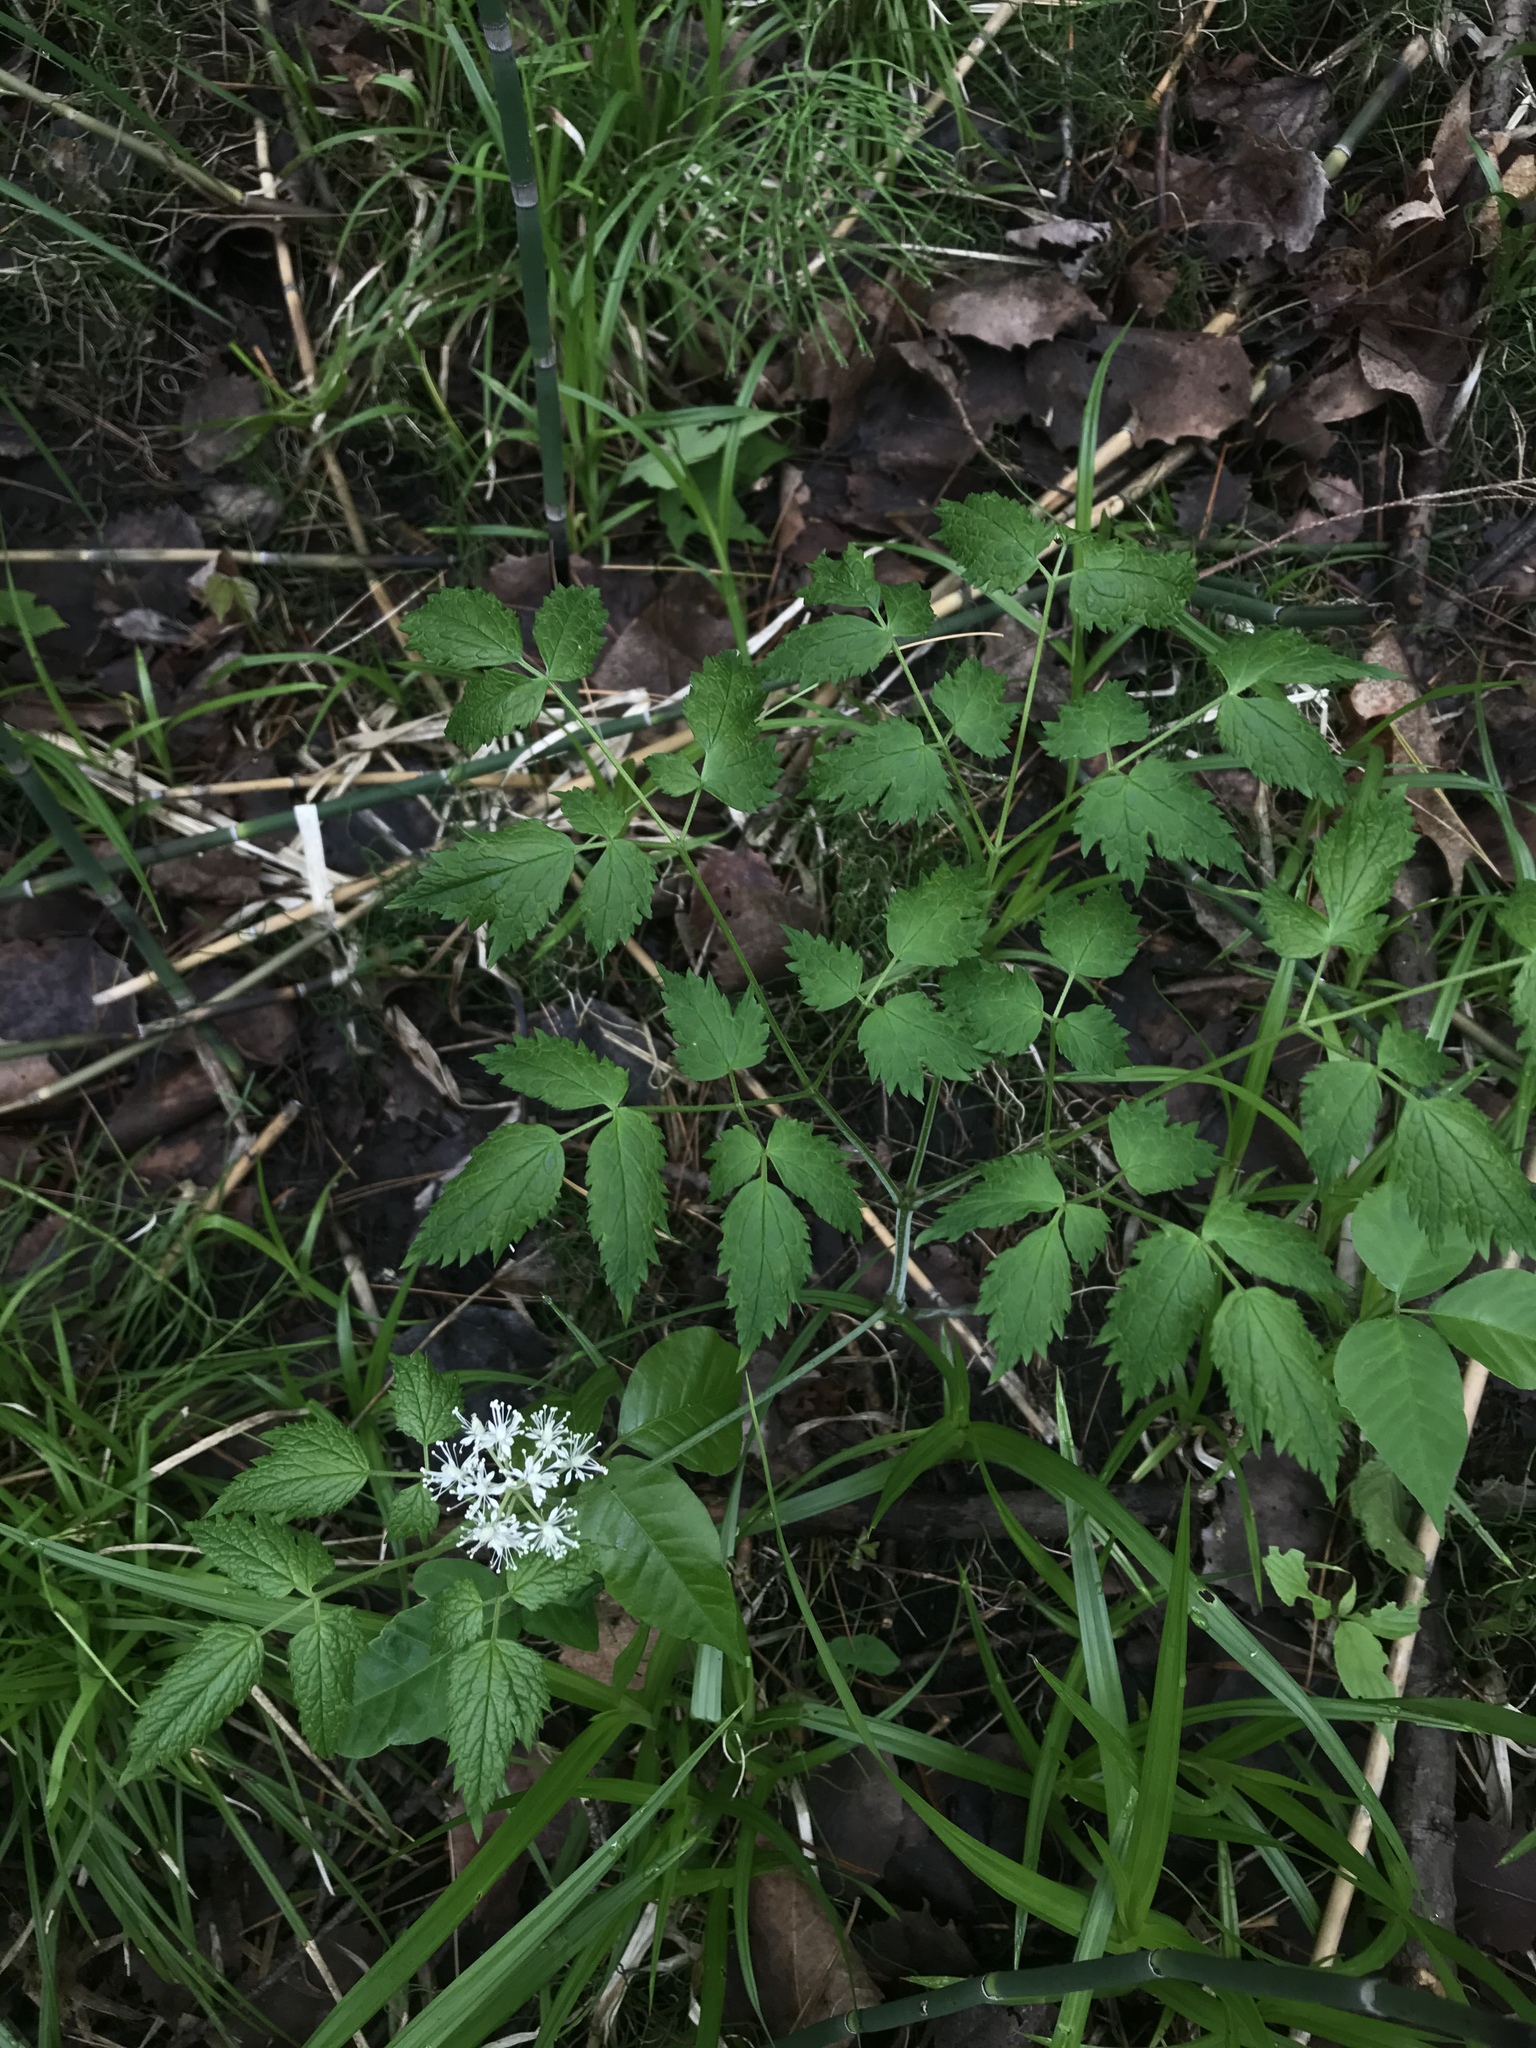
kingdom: Plantae
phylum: Tracheophyta
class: Magnoliopsida
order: Ranunculales
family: Ranunculaceae
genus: Actaea
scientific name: Actaea rubra
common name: Red baneberry
